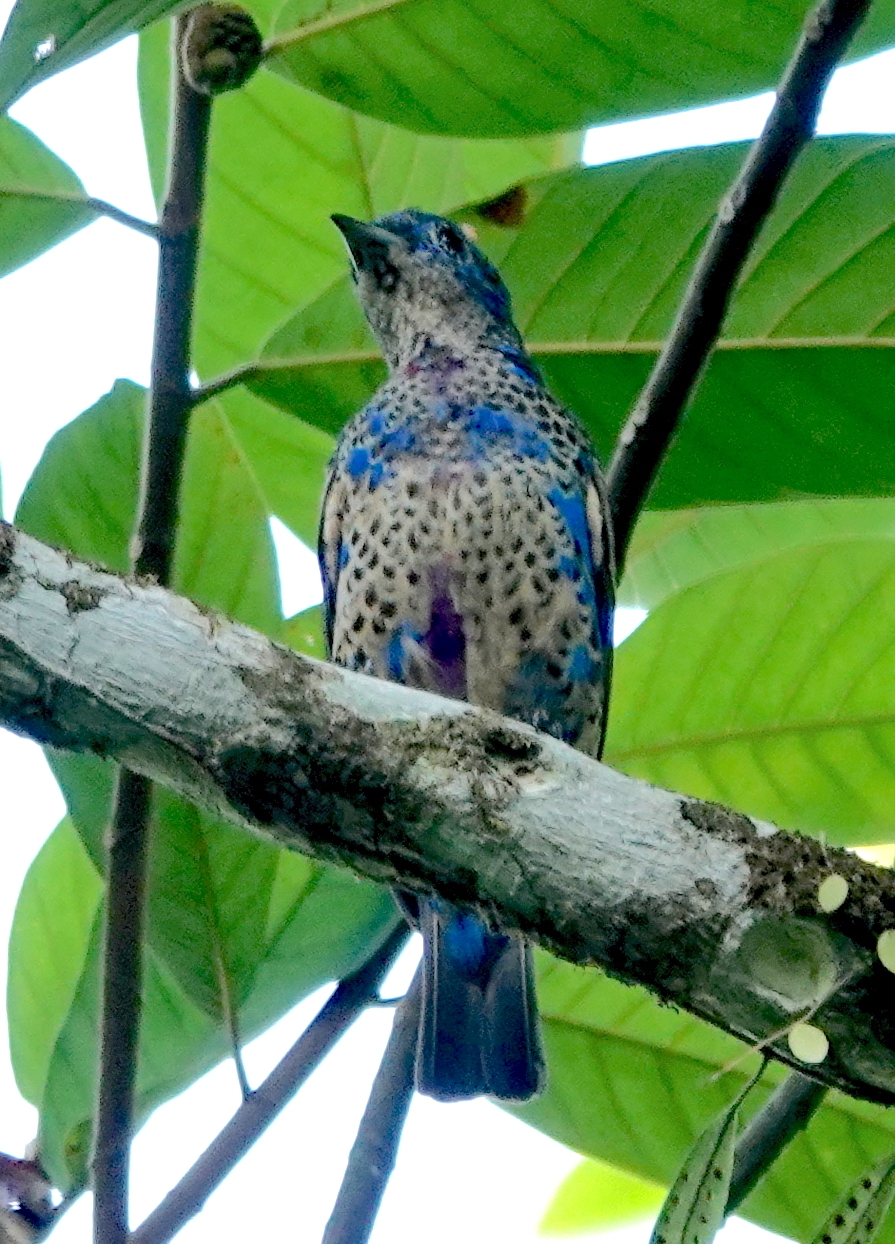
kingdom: Animalia
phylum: Chordata
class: Aves
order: Passeriformes
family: Cotingidae
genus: Cotinga
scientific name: Cotinga nattererii
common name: Blue cotinga
